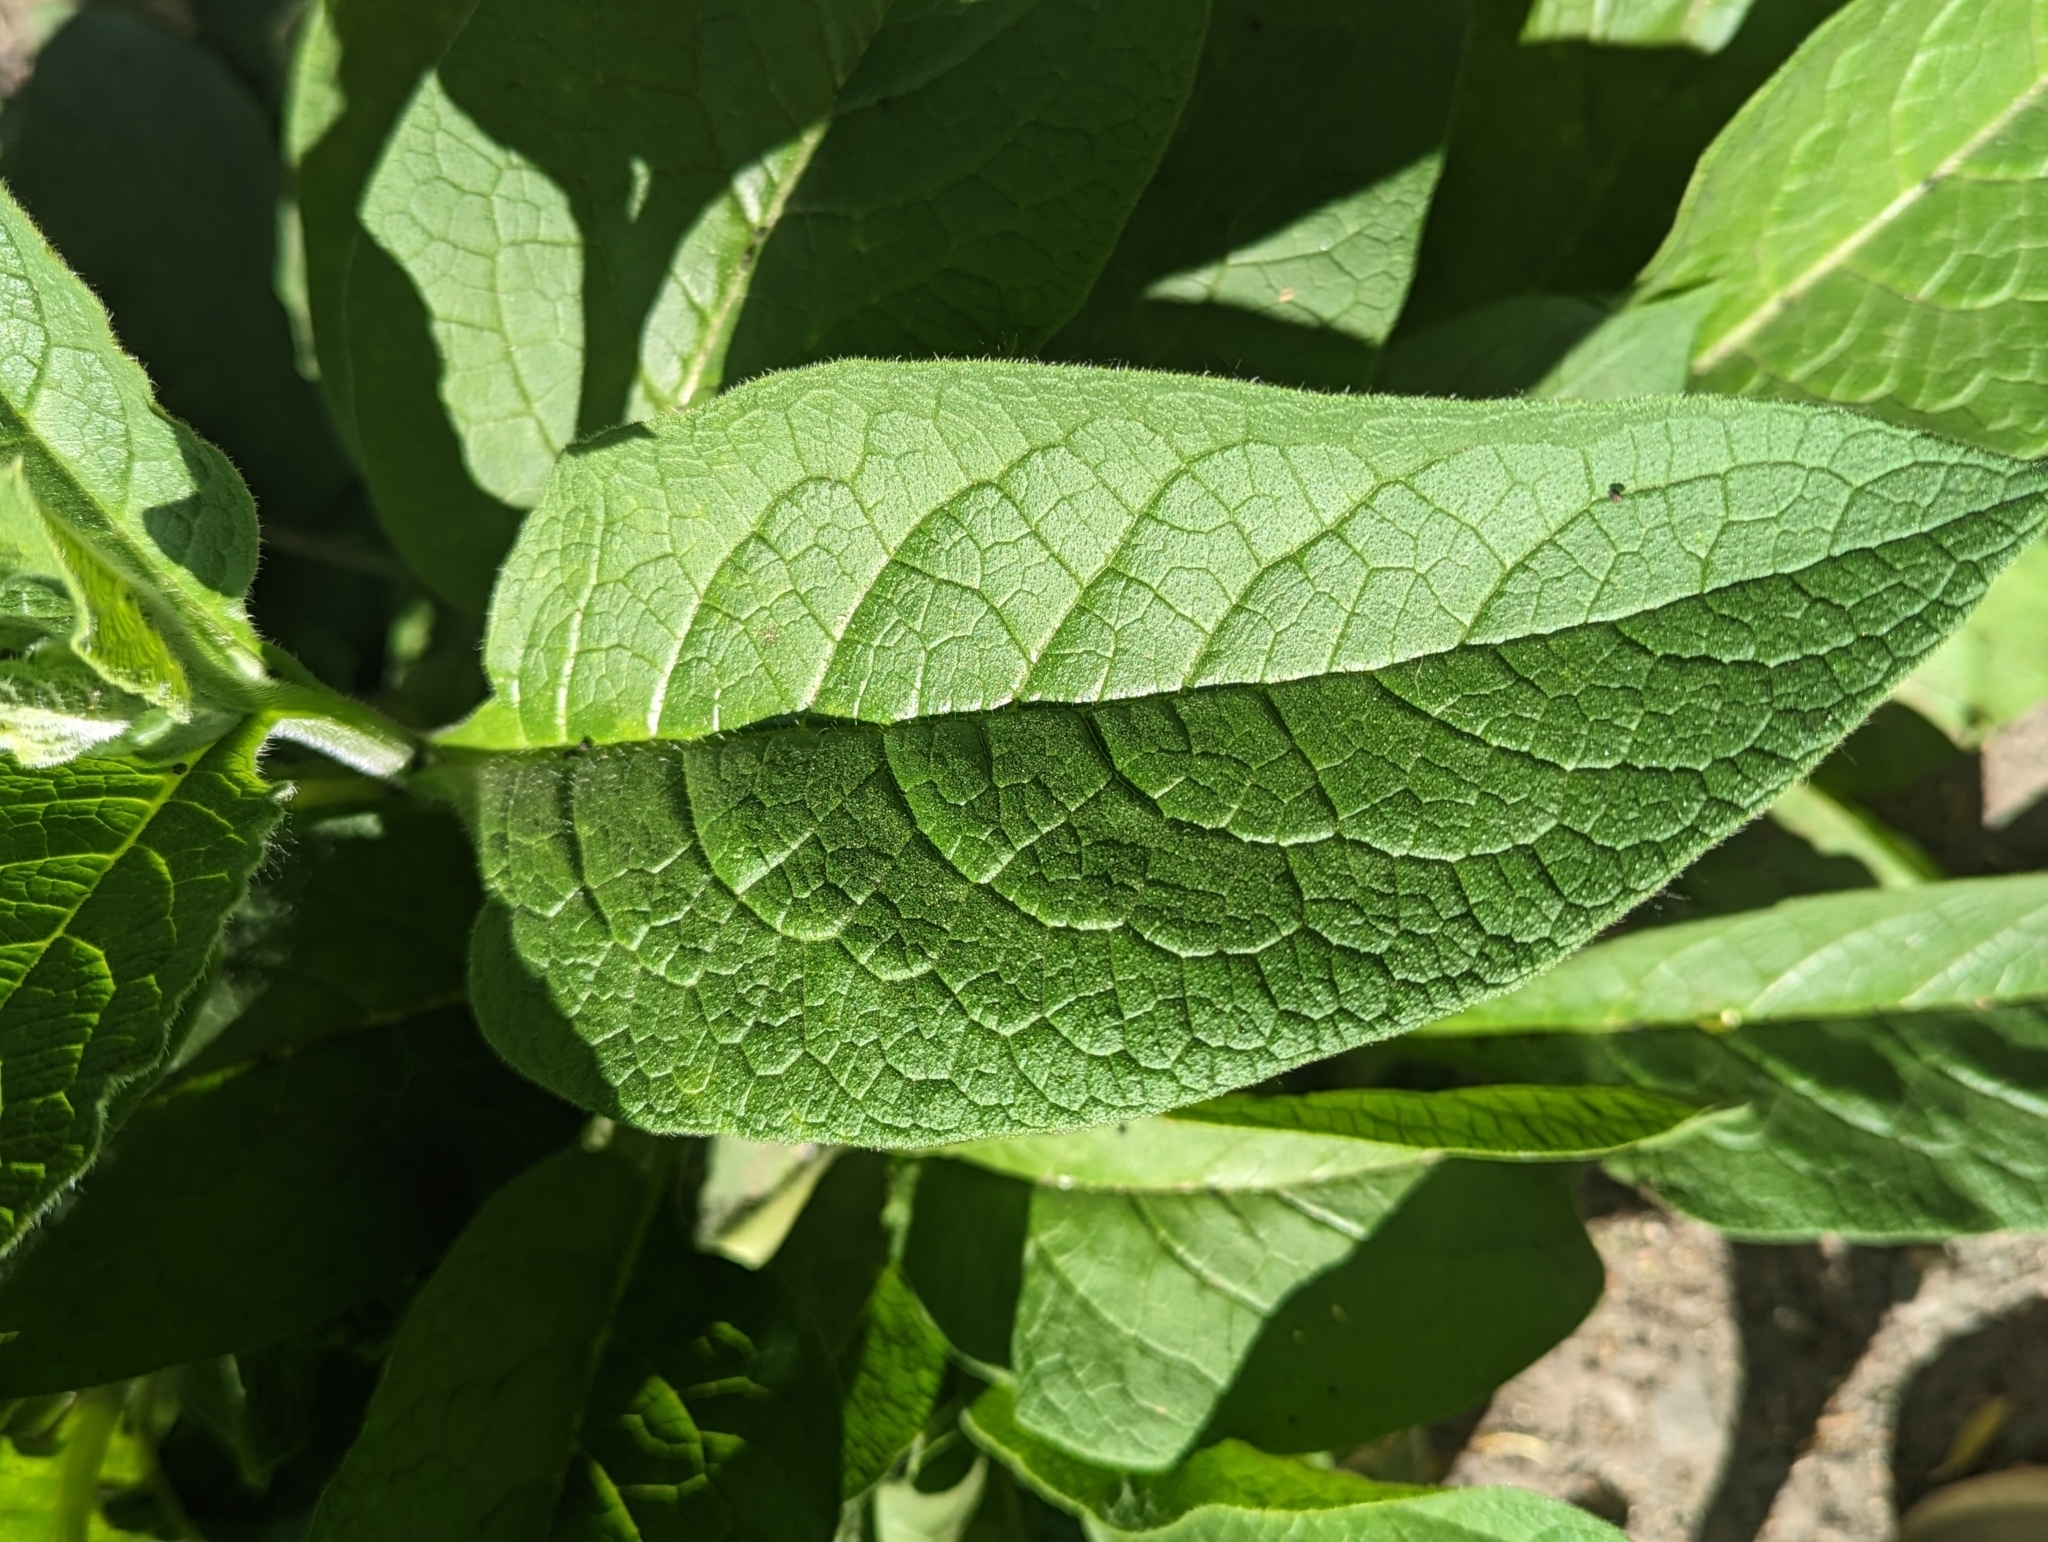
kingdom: Plantae
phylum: Tracheophyta
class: Magnoliopsida
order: Boraginales
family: Boraginaceae
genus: Symphytum
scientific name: Symphytum officinale
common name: Common comfrey
